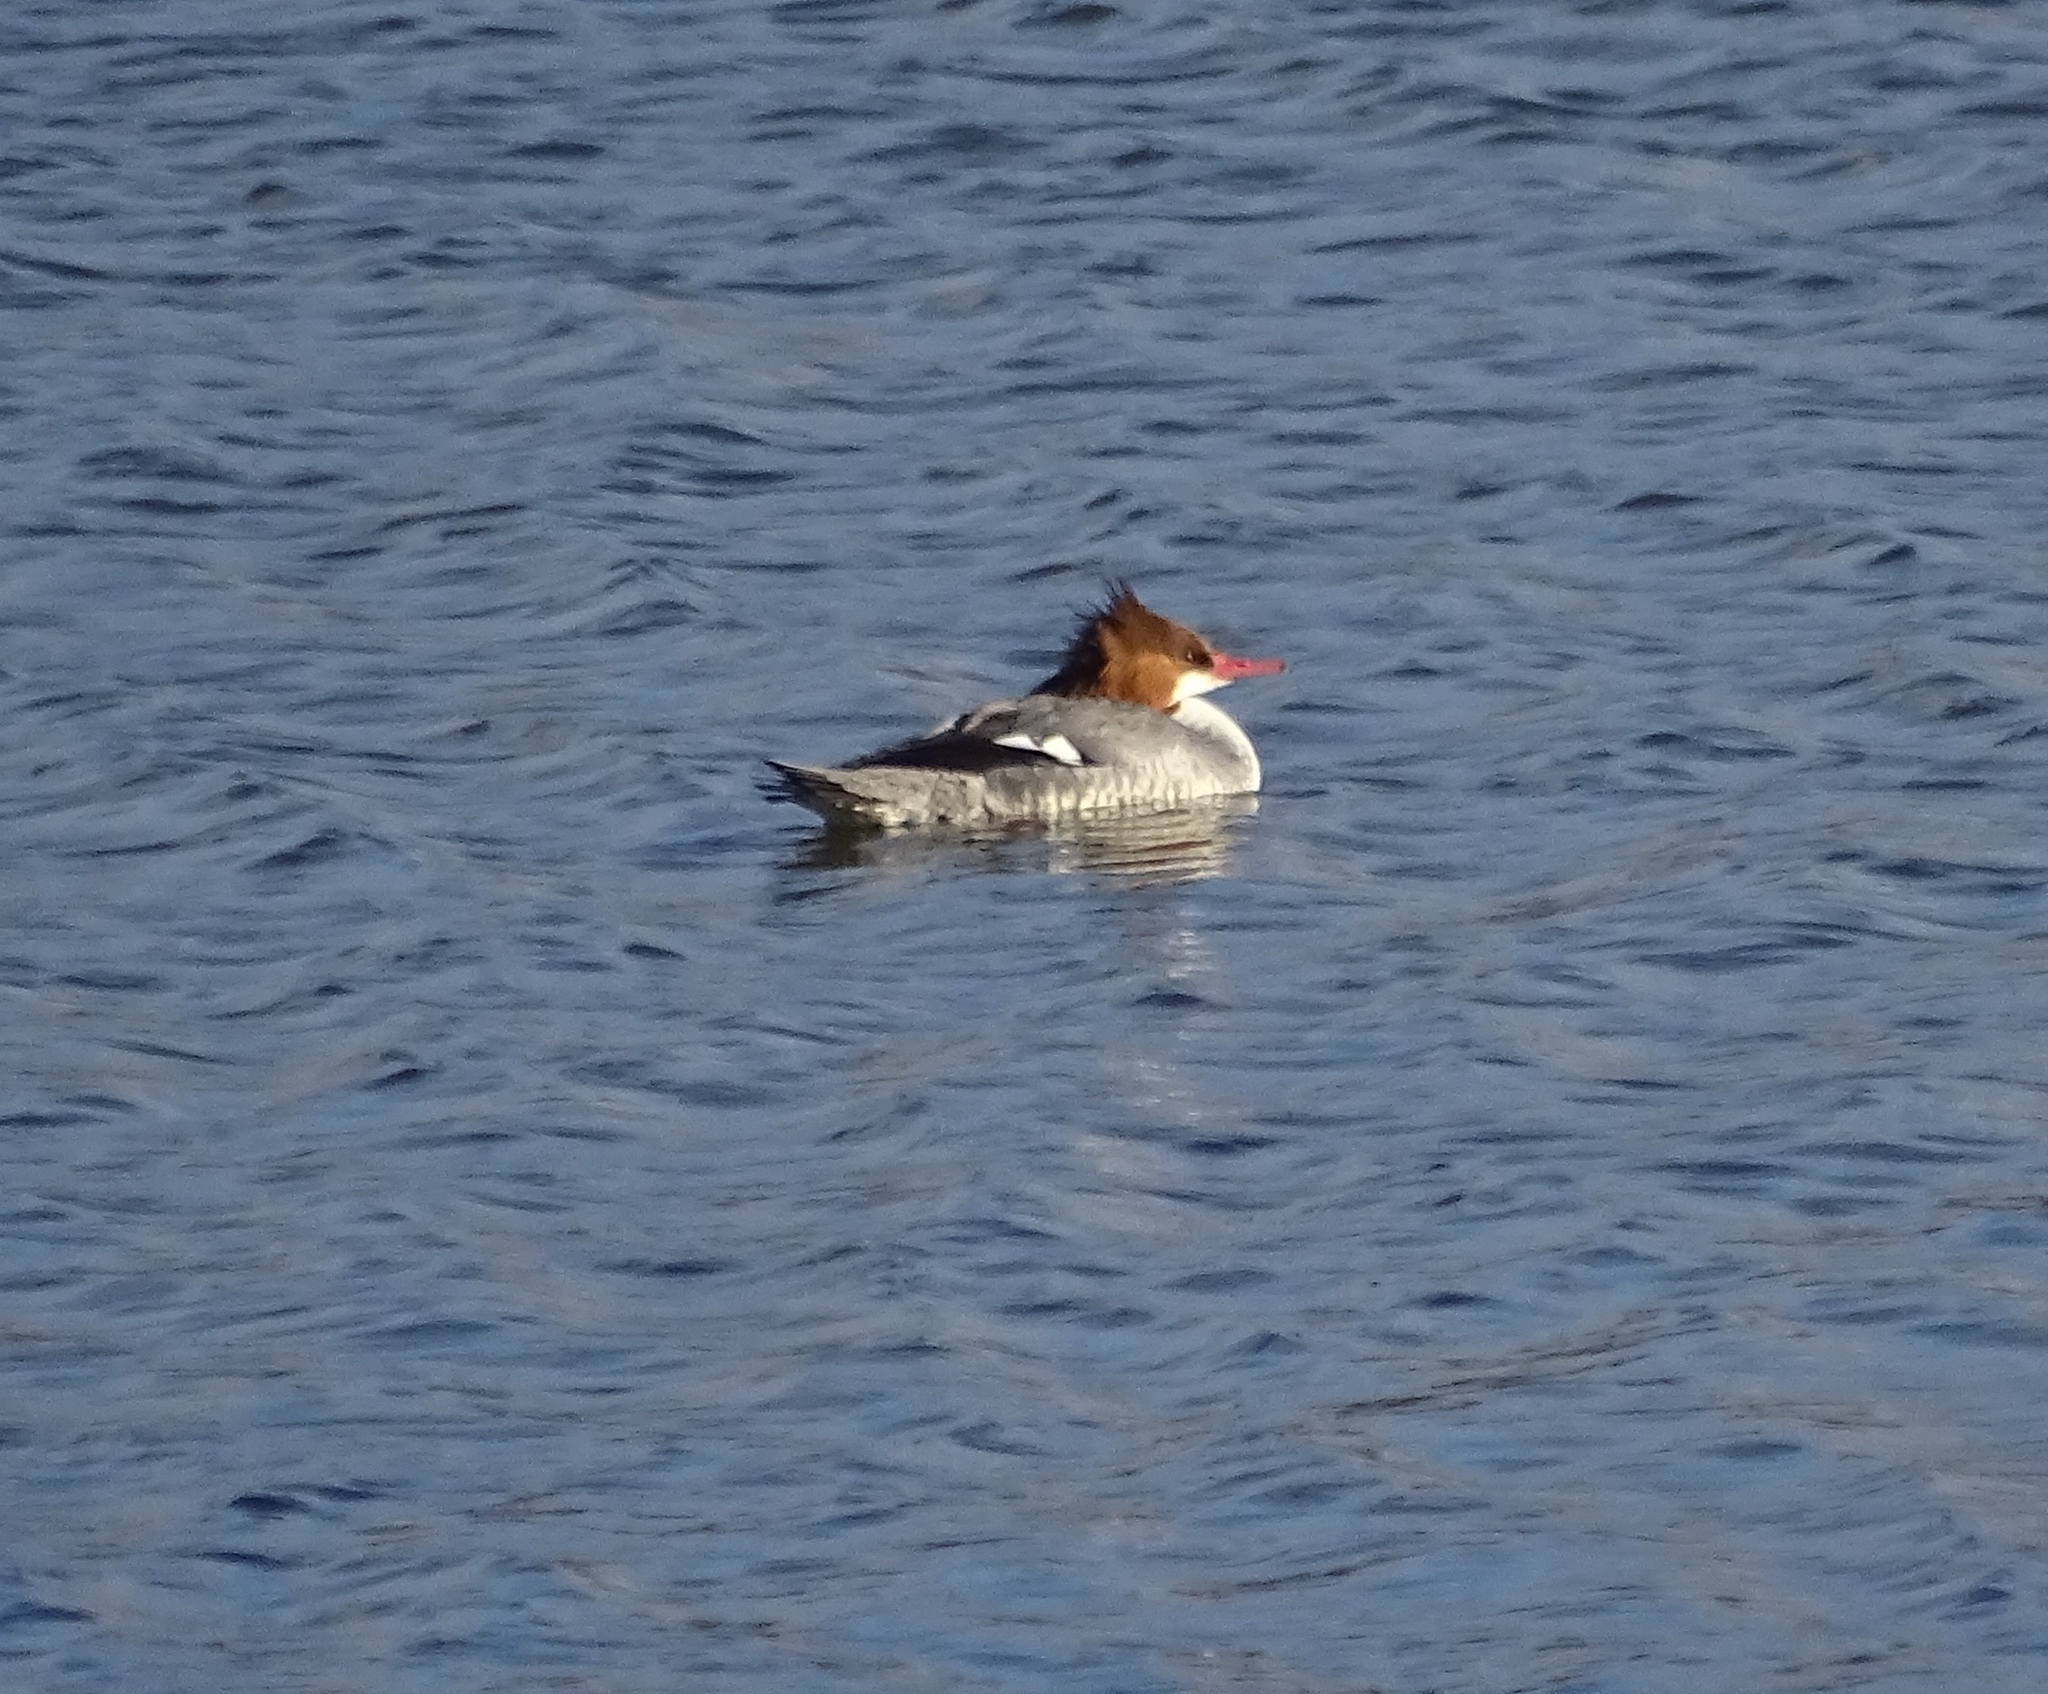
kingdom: Animalia
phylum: Chordata
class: Aves
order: Anseriformes
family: Anatidae
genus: Mergus
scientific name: Mergus merganser
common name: Common merganser
